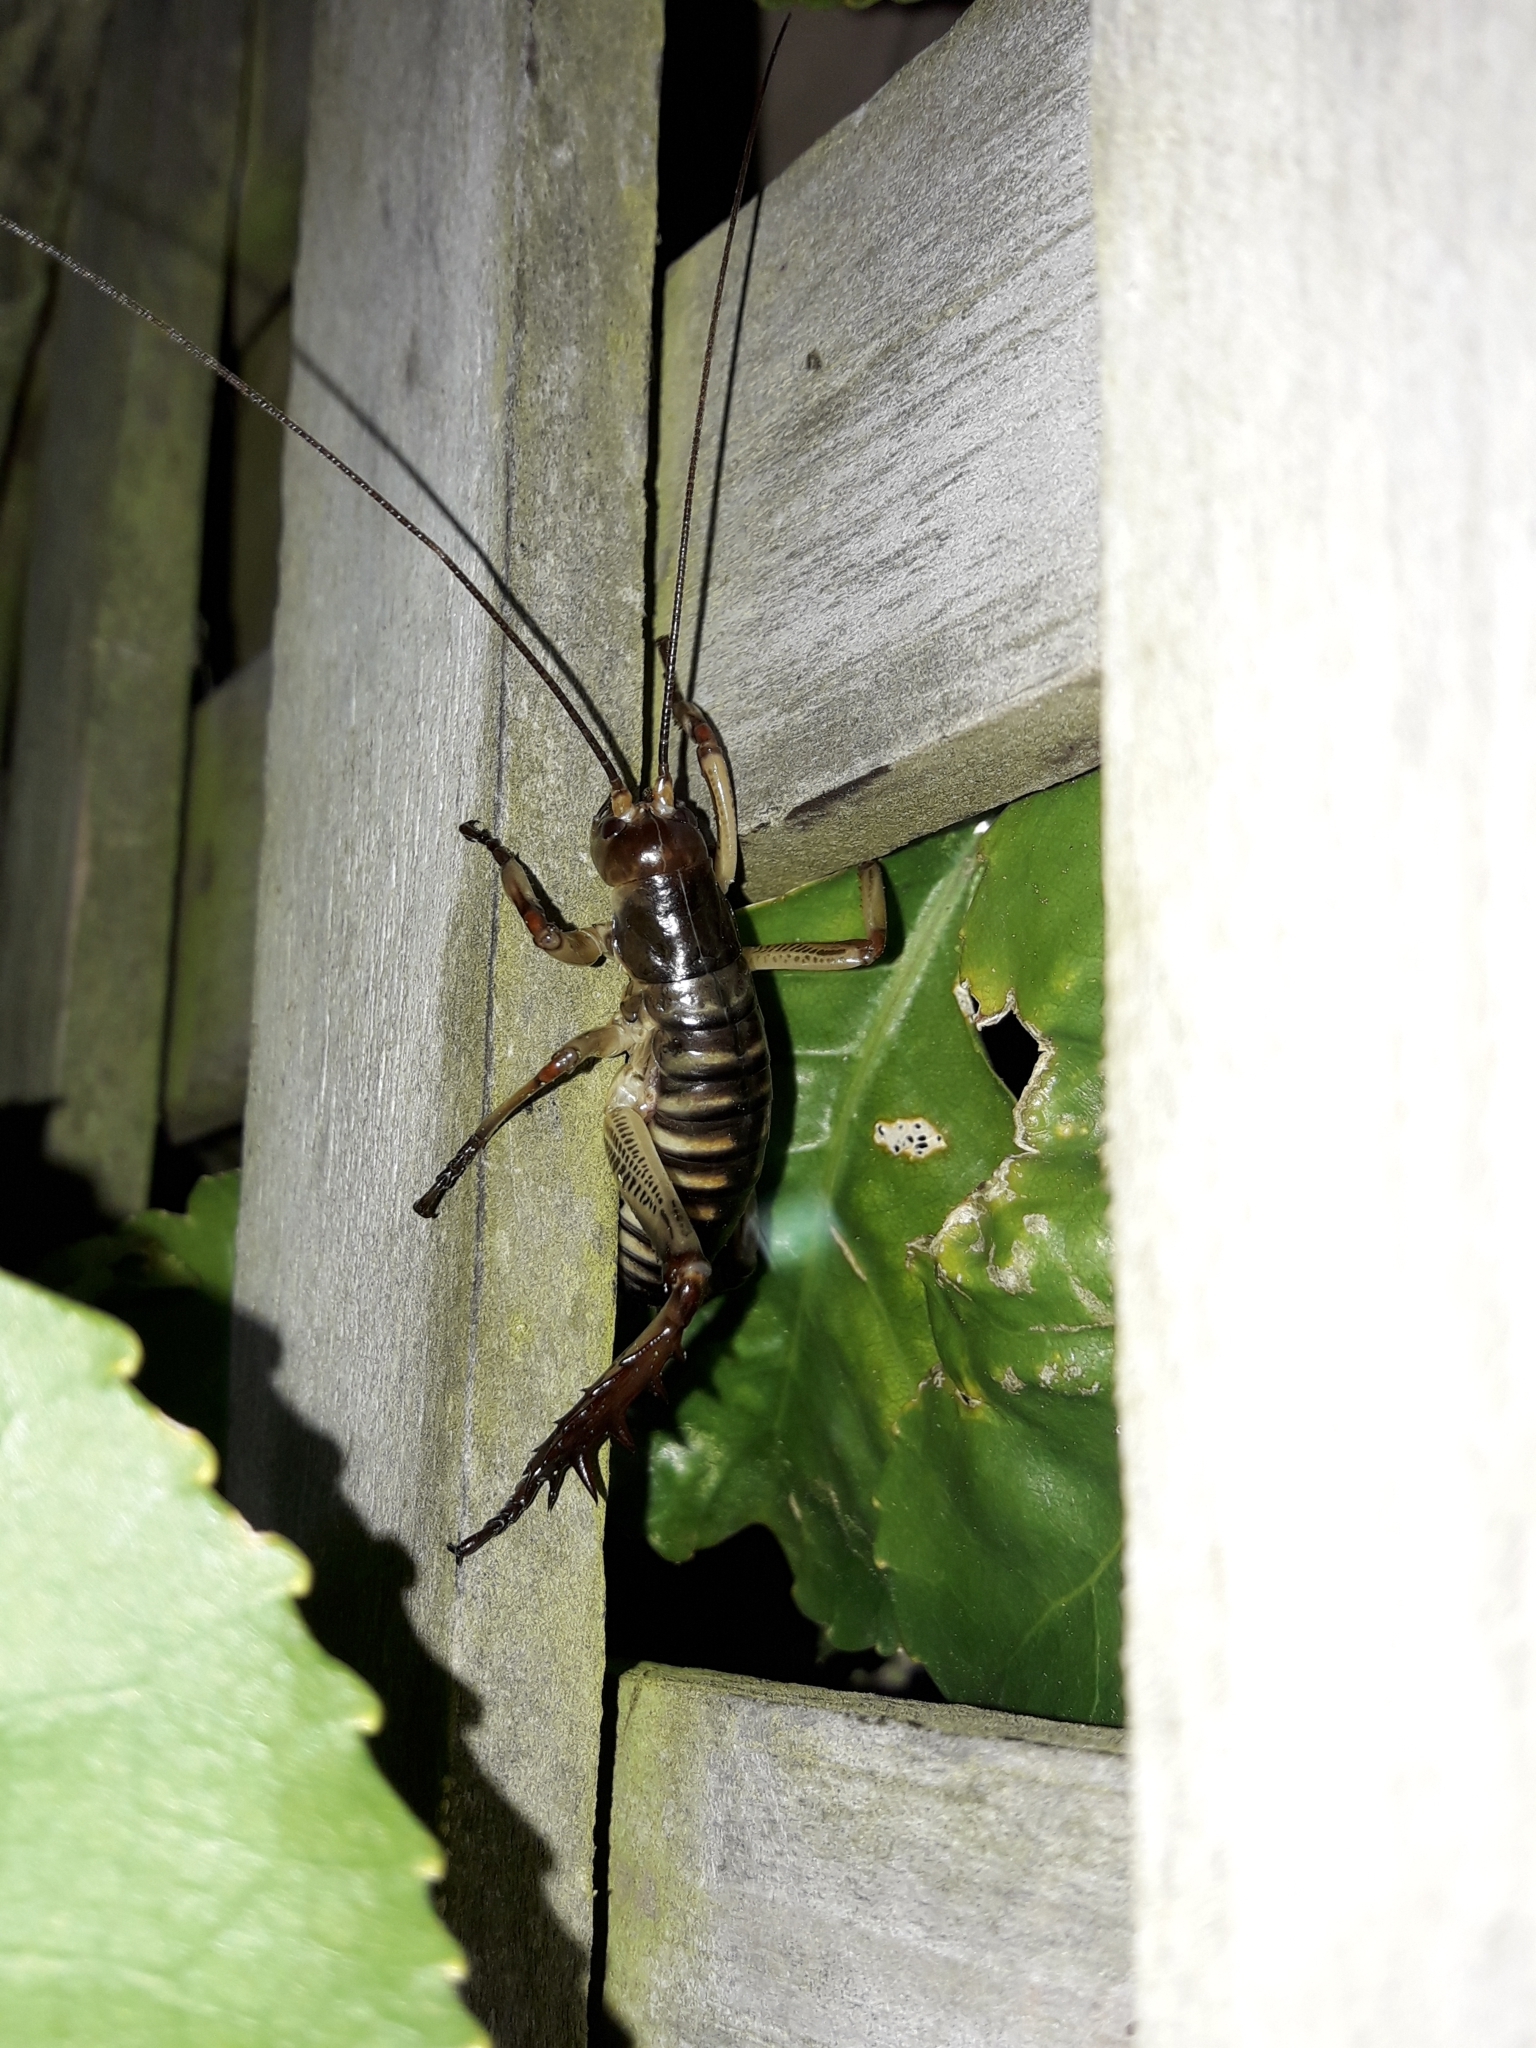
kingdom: Animalia
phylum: Arthropoda
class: Insecta
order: Orthoptera
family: Anostostomatidae
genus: Hemideina
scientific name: Hemideina crassidens
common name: Wellington tree weta
